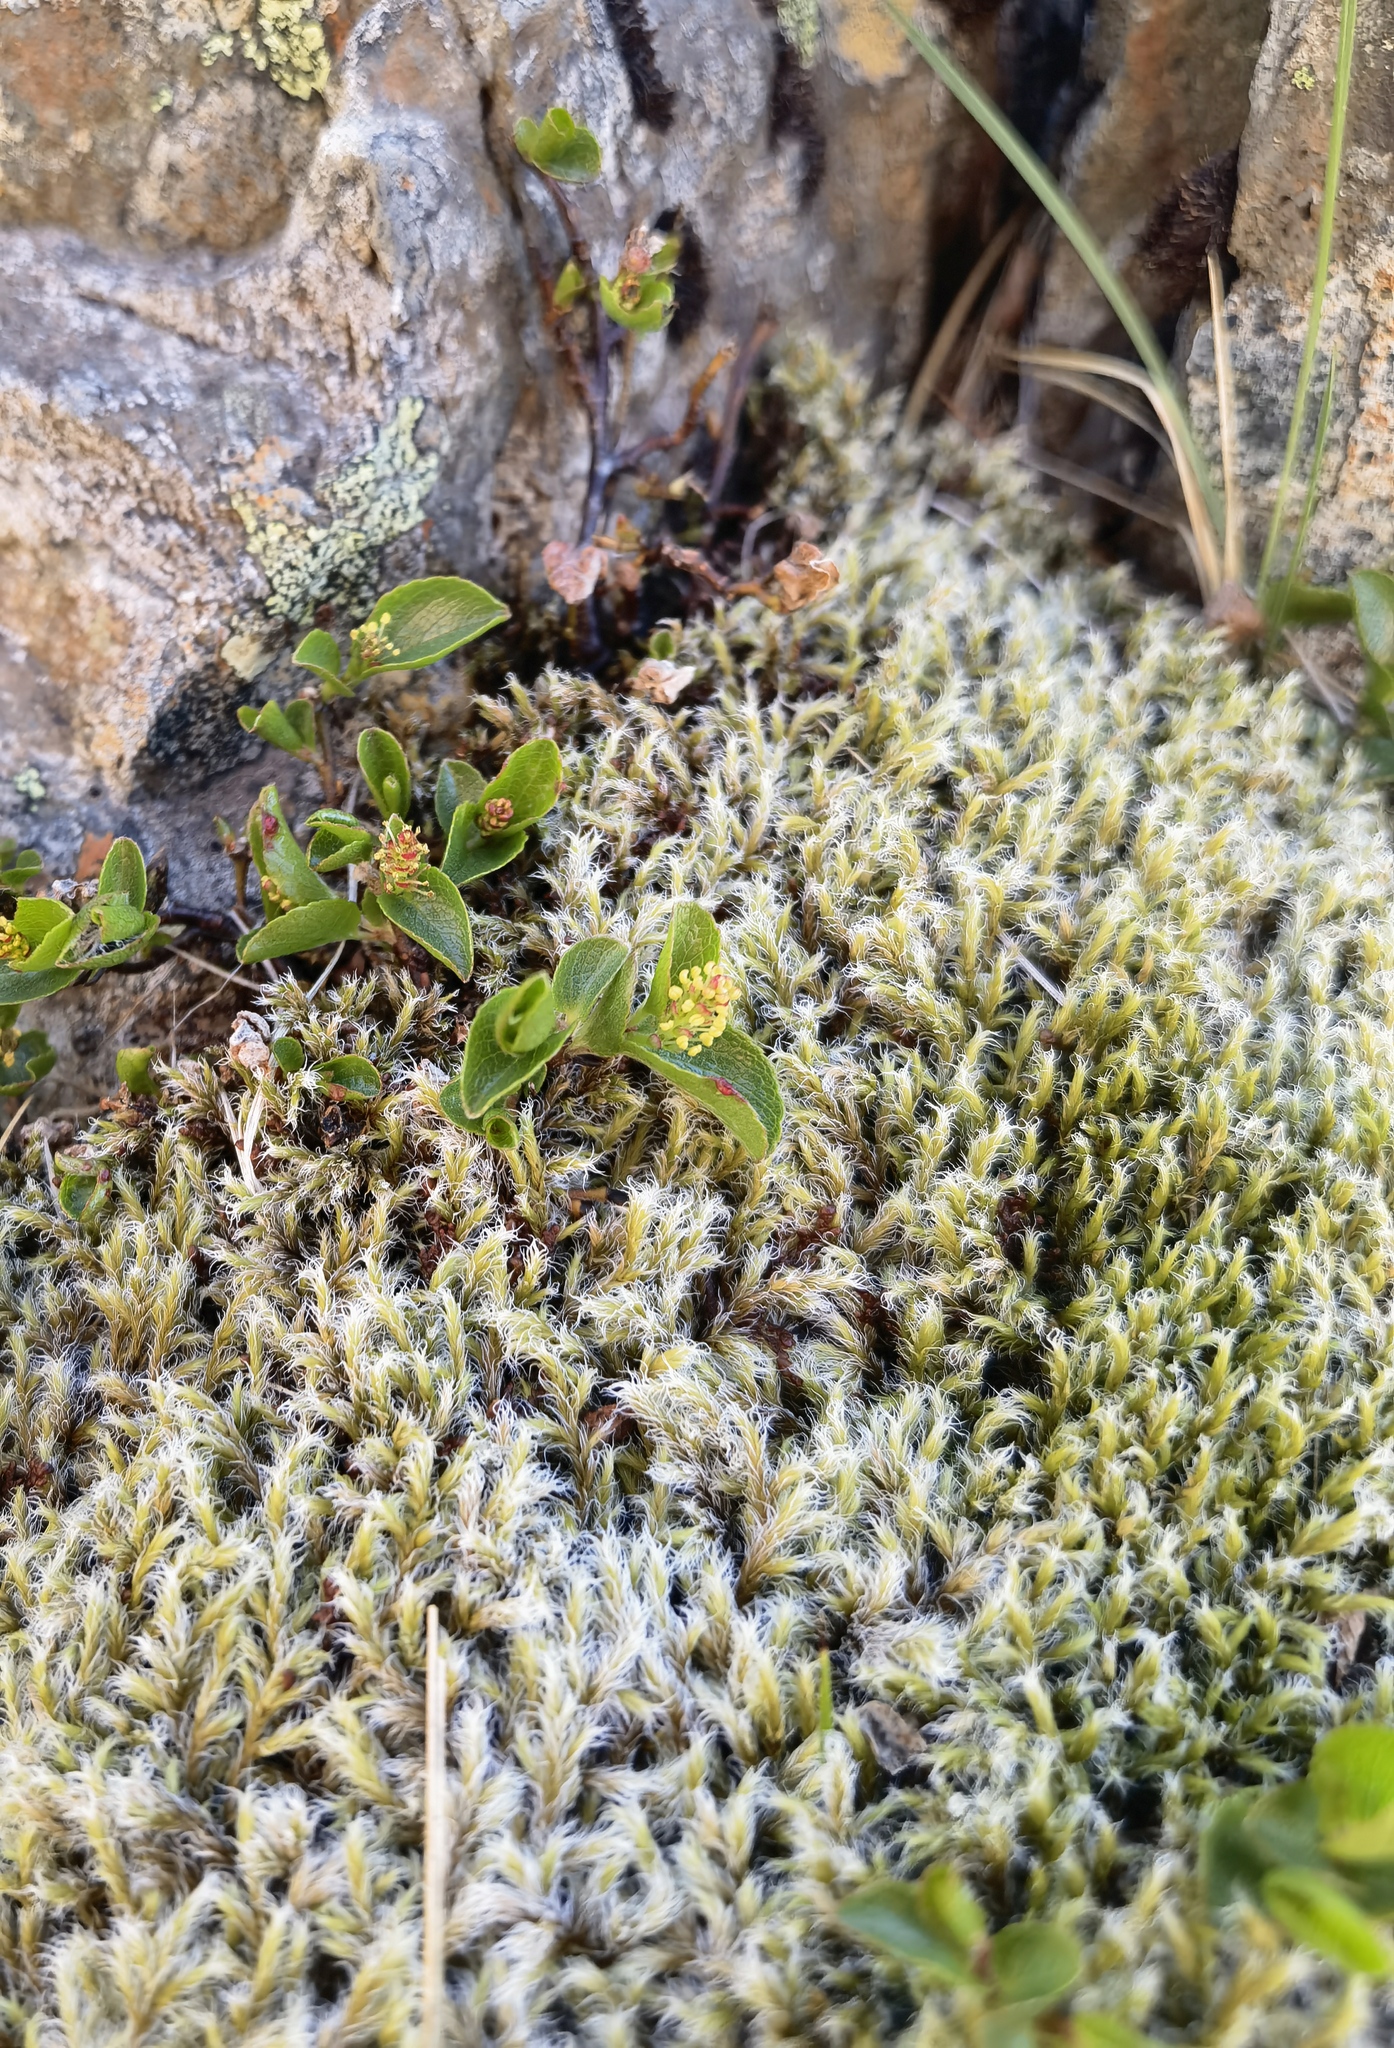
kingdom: Plantae
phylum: Tracheophyta
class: Magnoliopsida
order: Malpighiales
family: Salicaceae
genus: Salix
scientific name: Salix herbacea
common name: Dwarf willow
